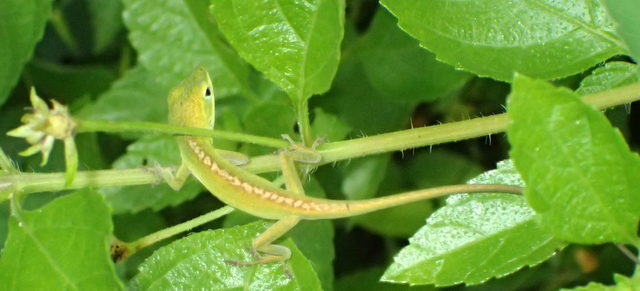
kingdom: Animalia
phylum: Chordata
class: Squamata
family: Dactyloidae
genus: Anolis
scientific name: Anolis carolinensis
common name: Green anole
